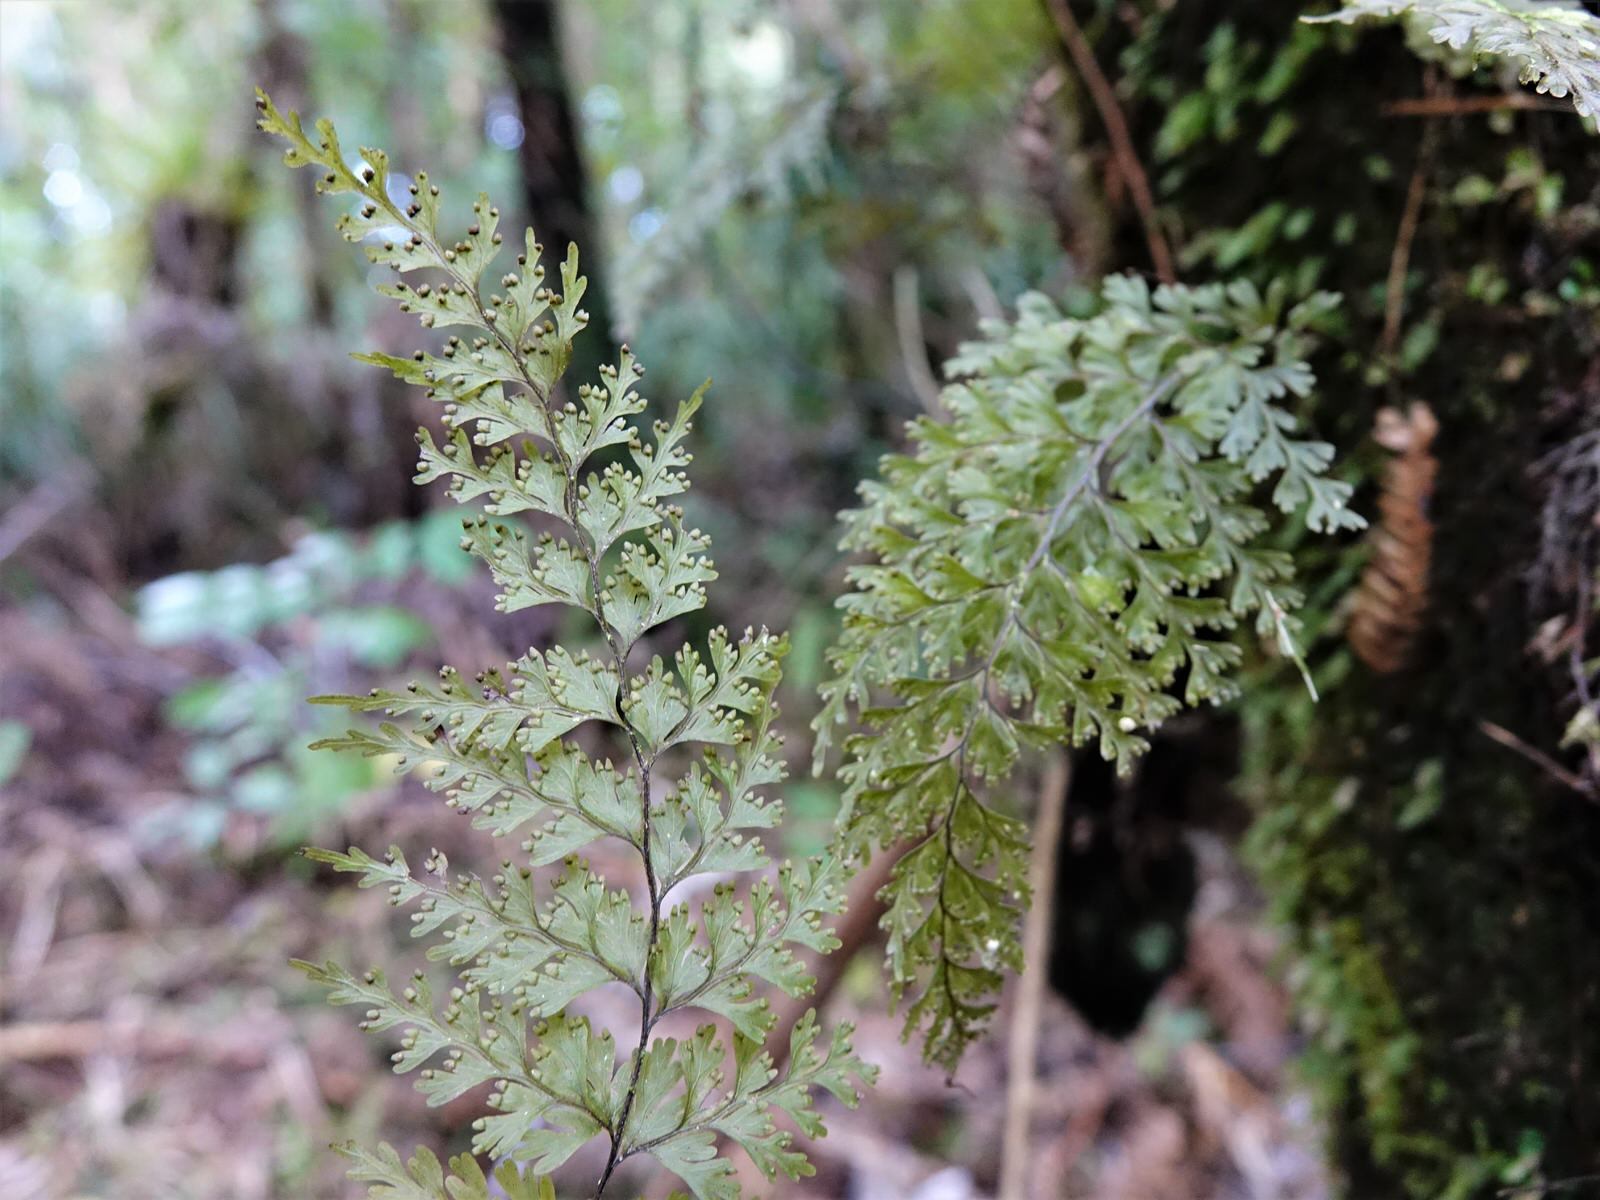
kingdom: Plantae
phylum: Tracheophyta
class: Polypodiopsida
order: Hymenophyllales
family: Hymenophyllaceae
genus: Hymenophyllum
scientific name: Hymenophyllum demissum
